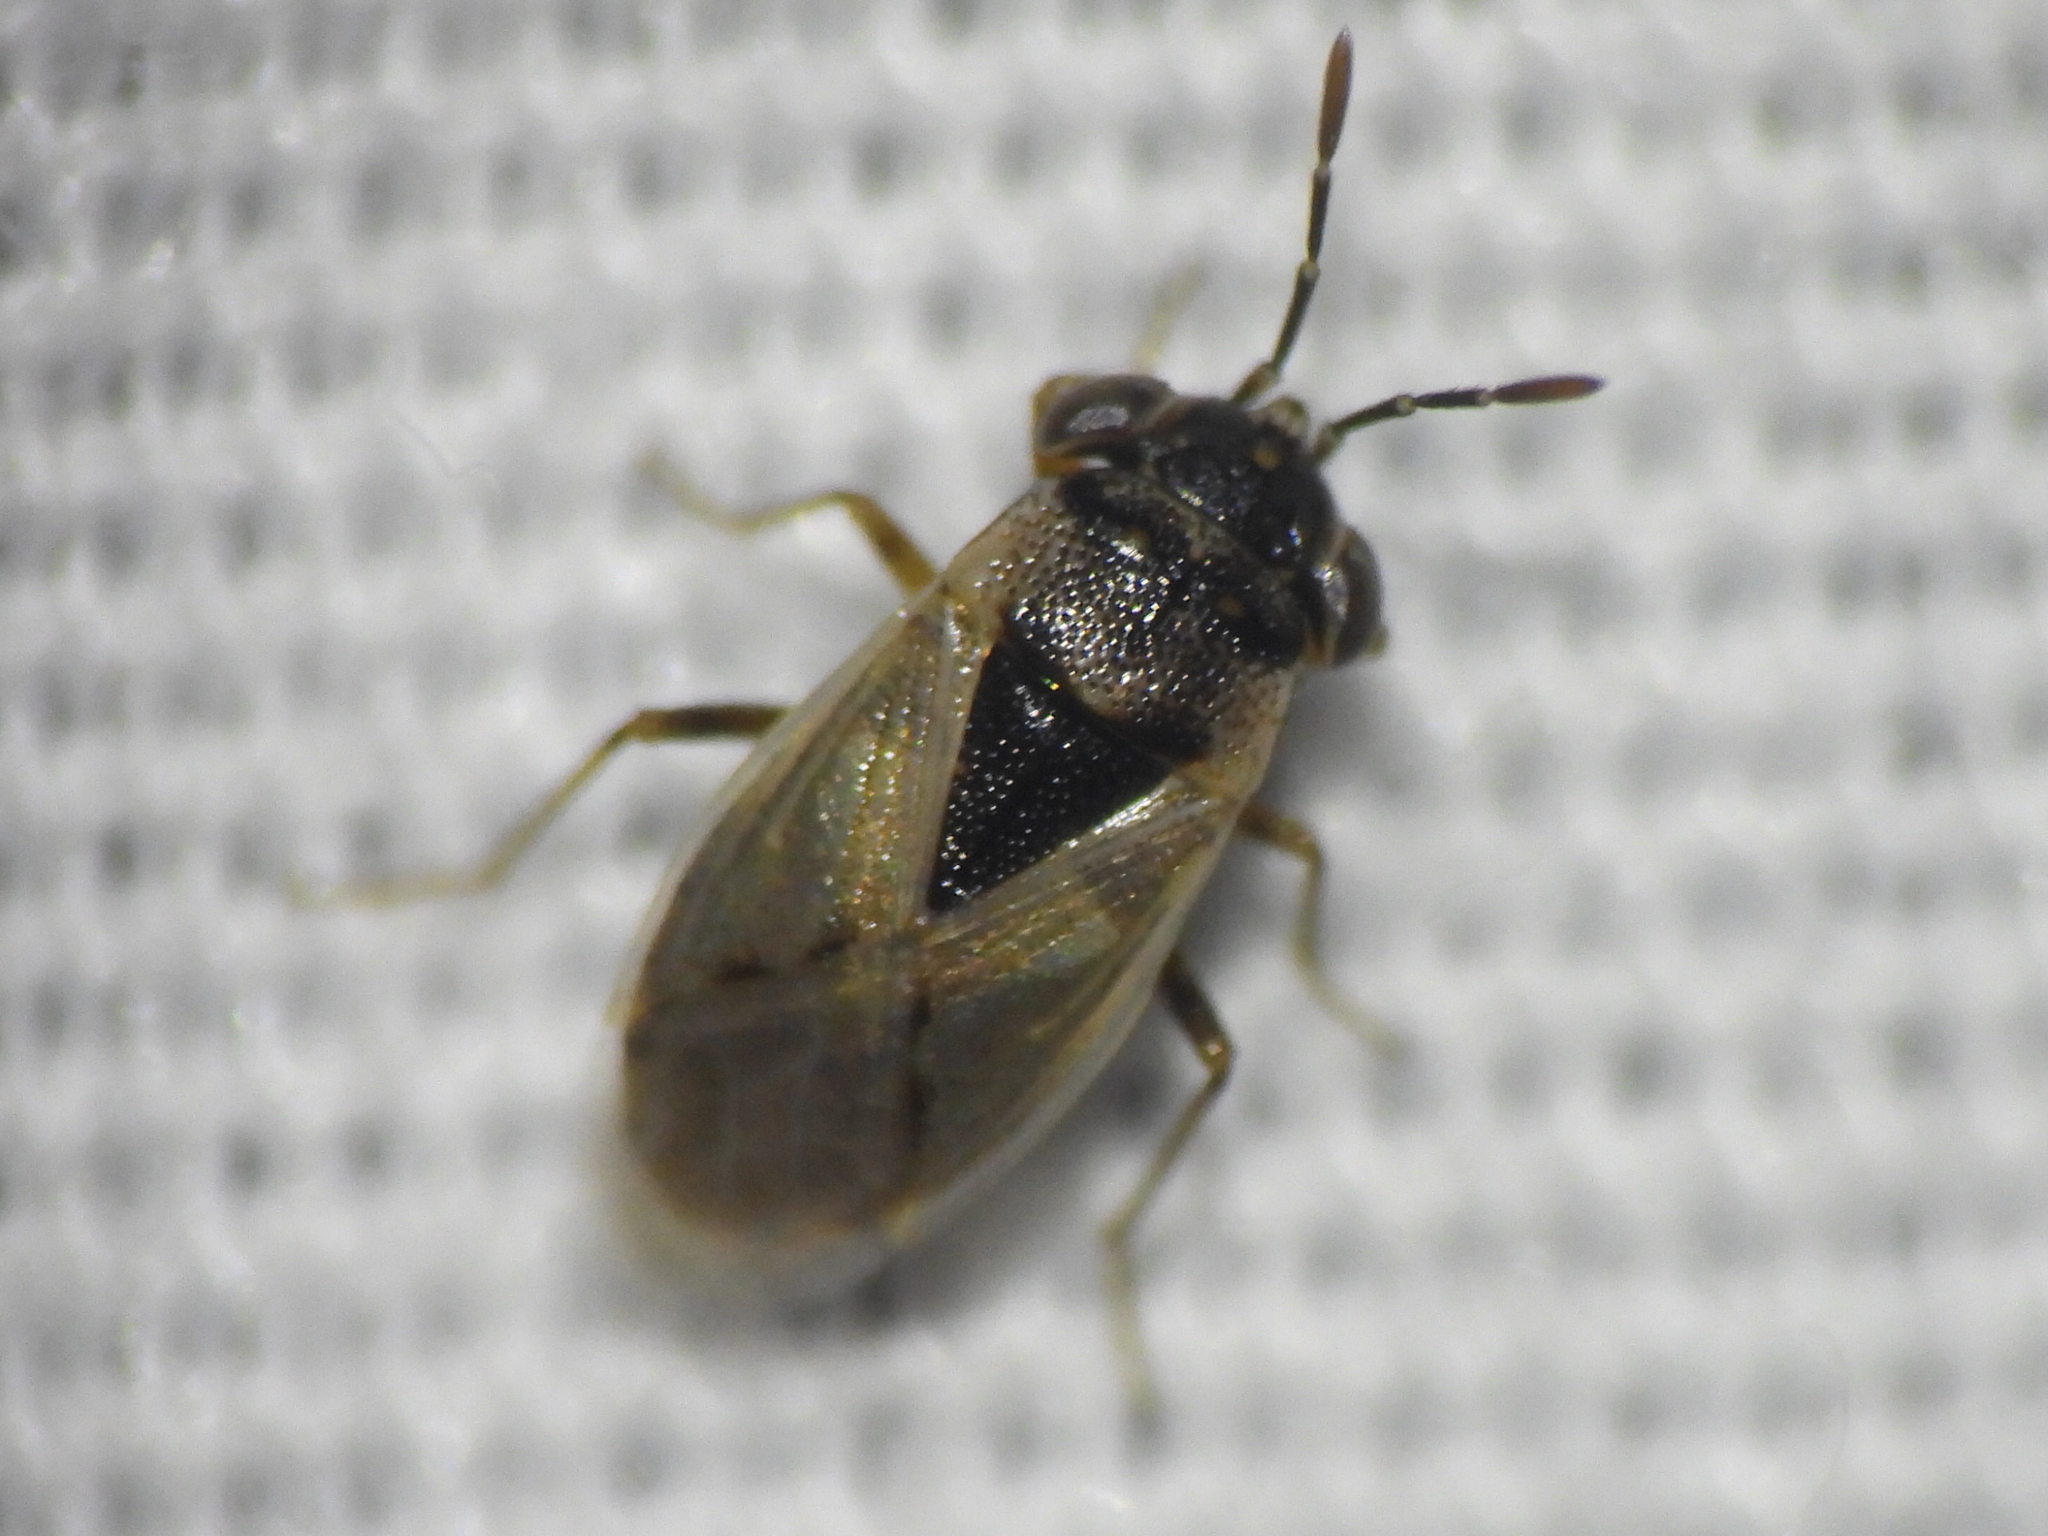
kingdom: Animalia
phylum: Arthropoda
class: Insecta
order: Hemiptera
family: Geocoridae
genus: Geocoris
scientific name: Geocoris uliginosus
